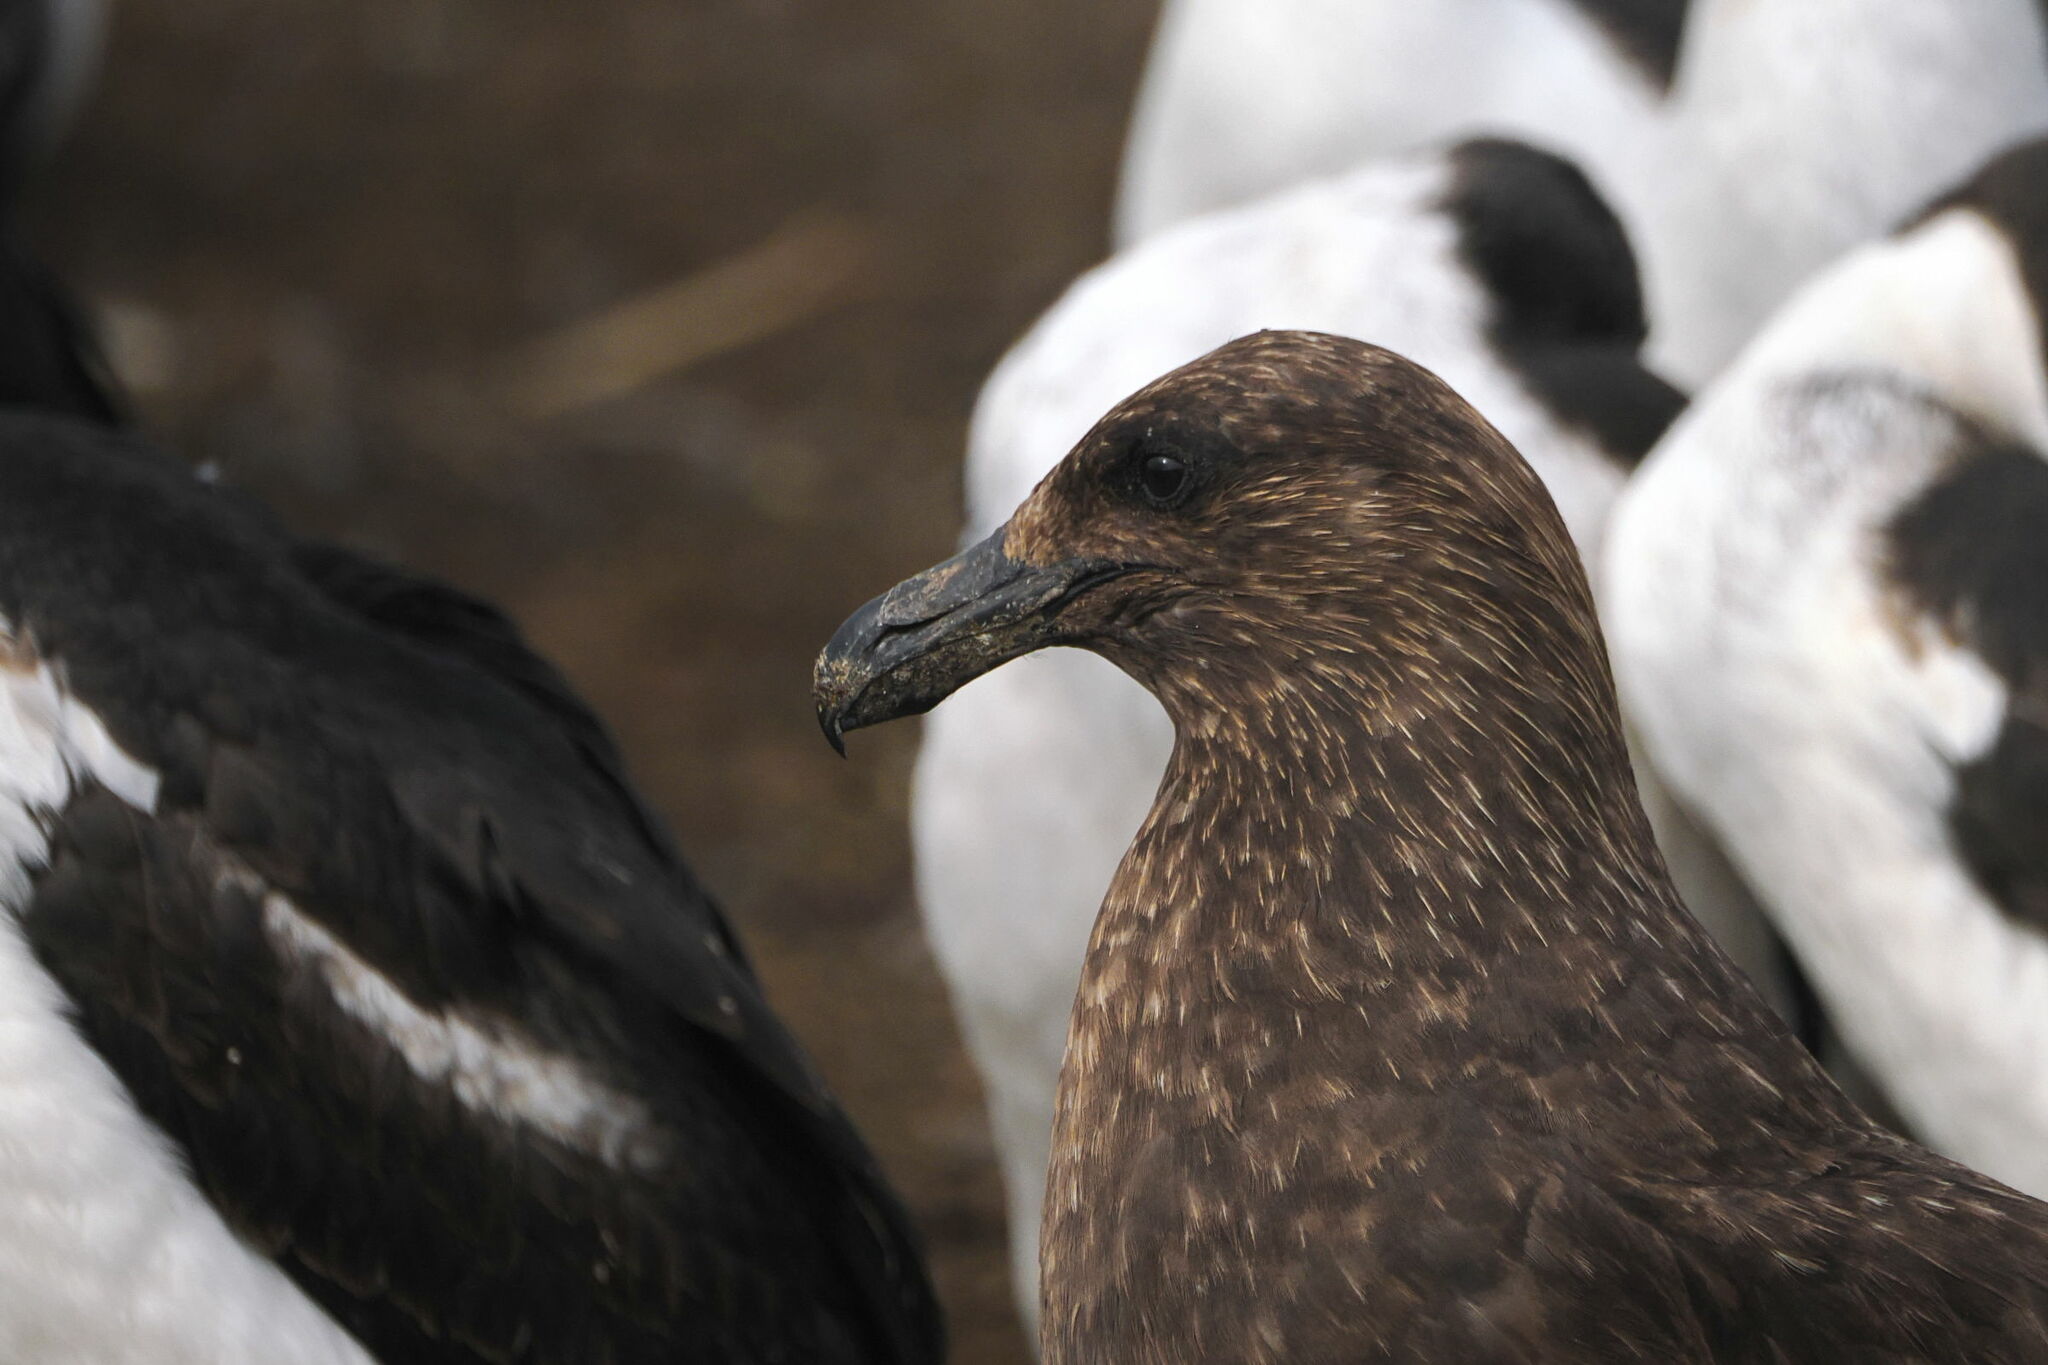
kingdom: Animalia
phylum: Chordata
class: Aves
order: Charadriiformes
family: Stercorariidae
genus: Stercorarius
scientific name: Stercorarius antarcticus
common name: Brown skua
